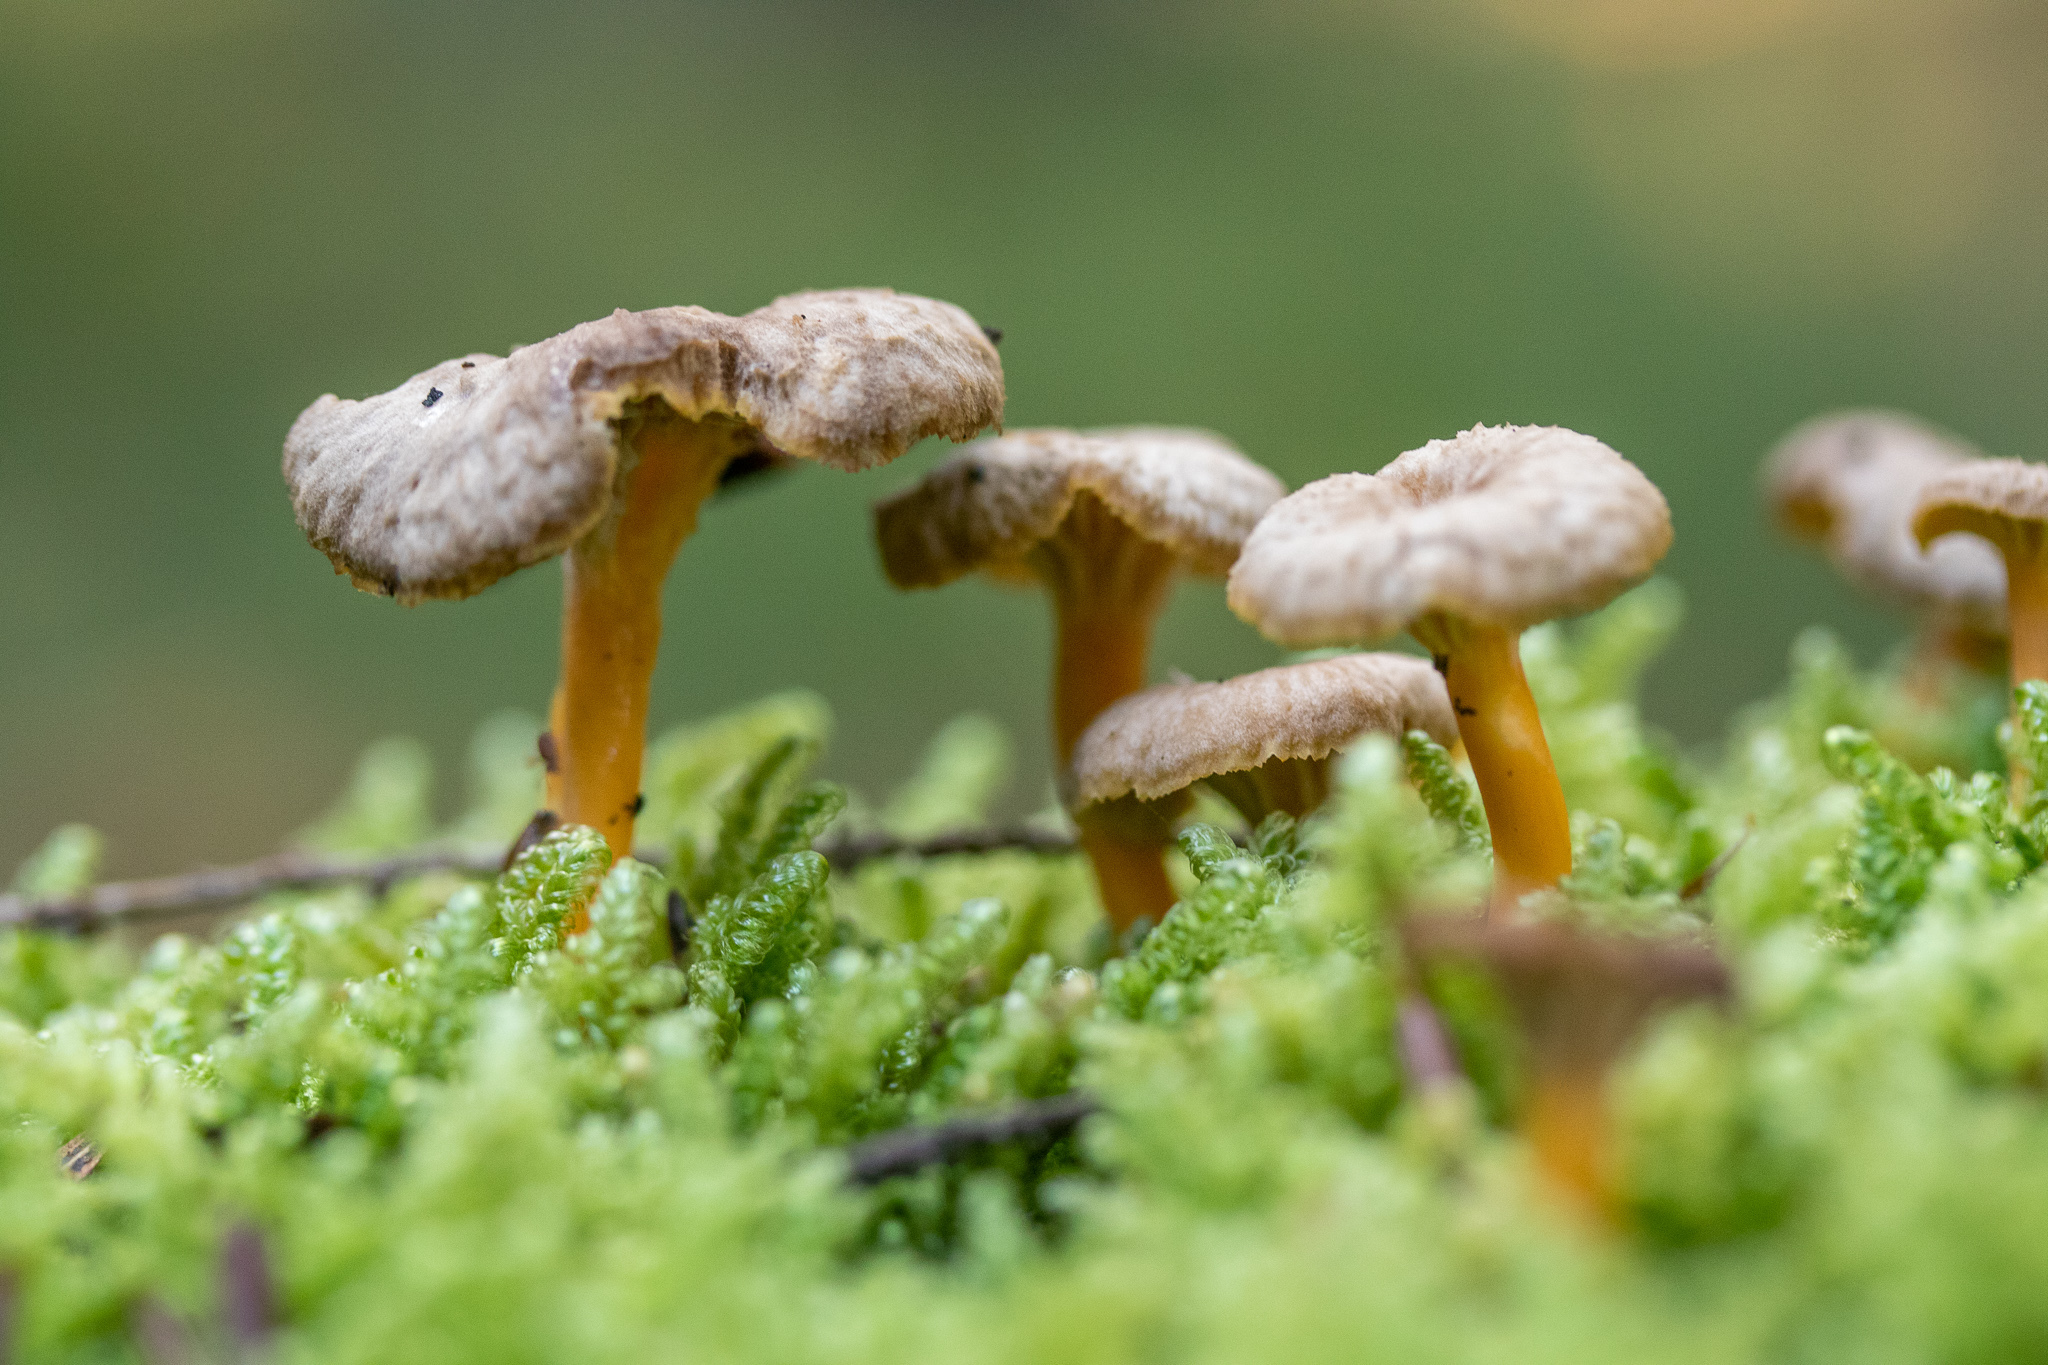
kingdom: Fungi
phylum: Basidiomycota
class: Agaricomycetes
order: Cantharellales
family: Hydnaceae
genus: Craterellus
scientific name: Craterellus tubaeformis
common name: Yellowfoot
